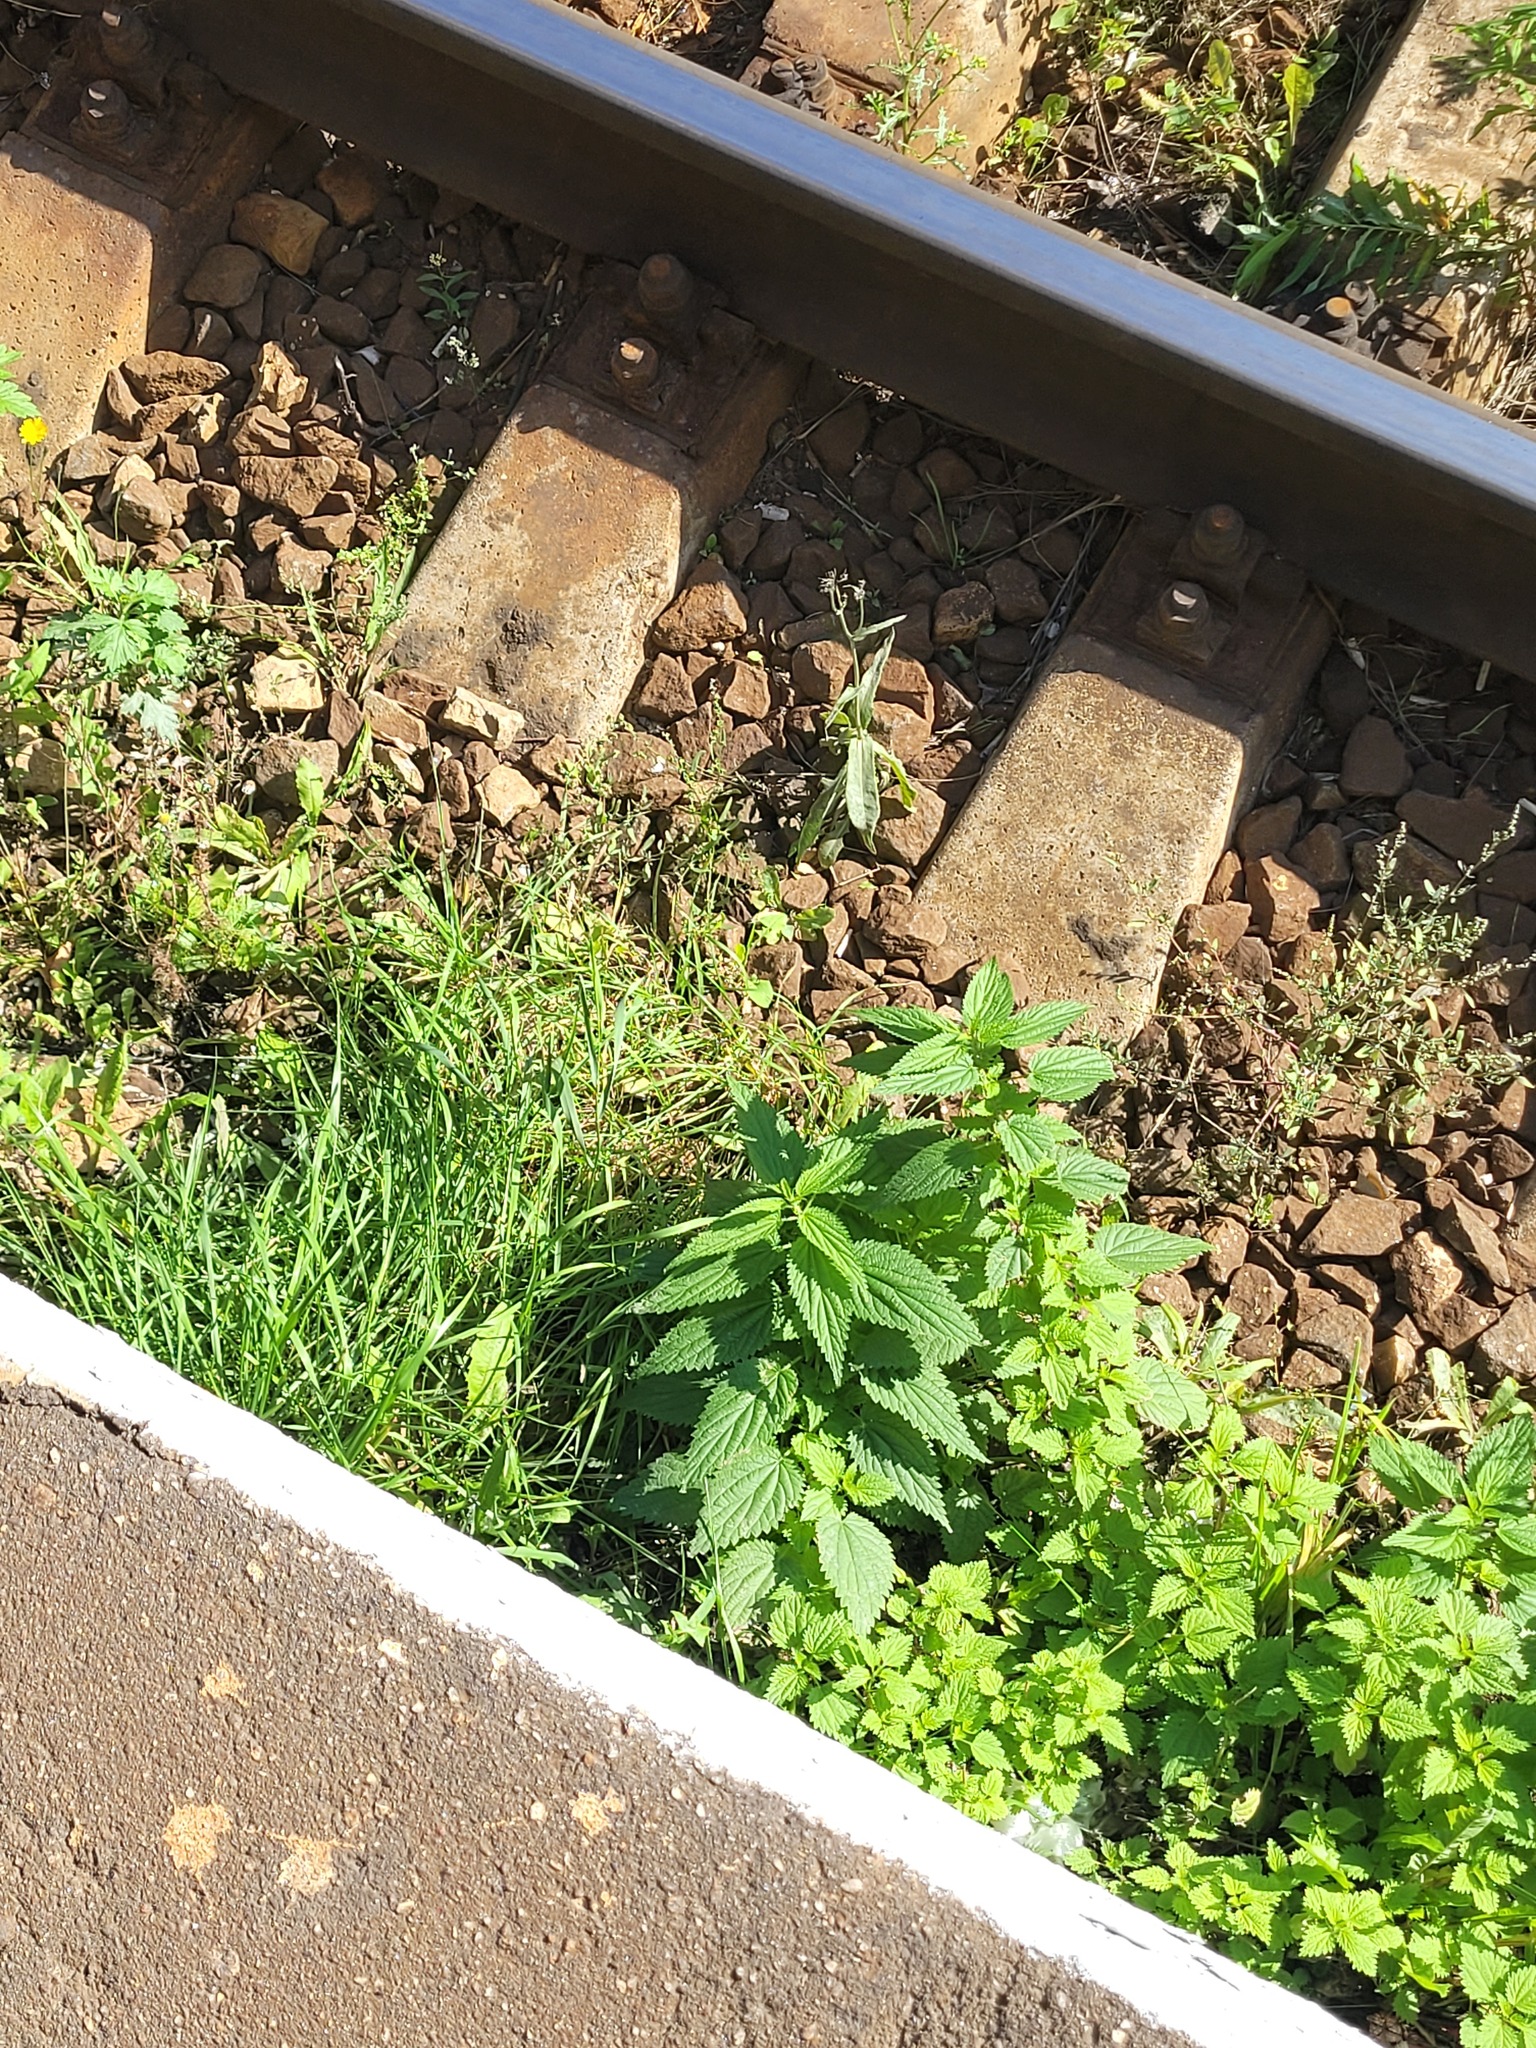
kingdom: Plantae
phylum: Tracheophyta
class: Magnoliopsida
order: Rosales
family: Urticaceae
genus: Urtica
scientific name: Urtica dioica
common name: Common nettle
